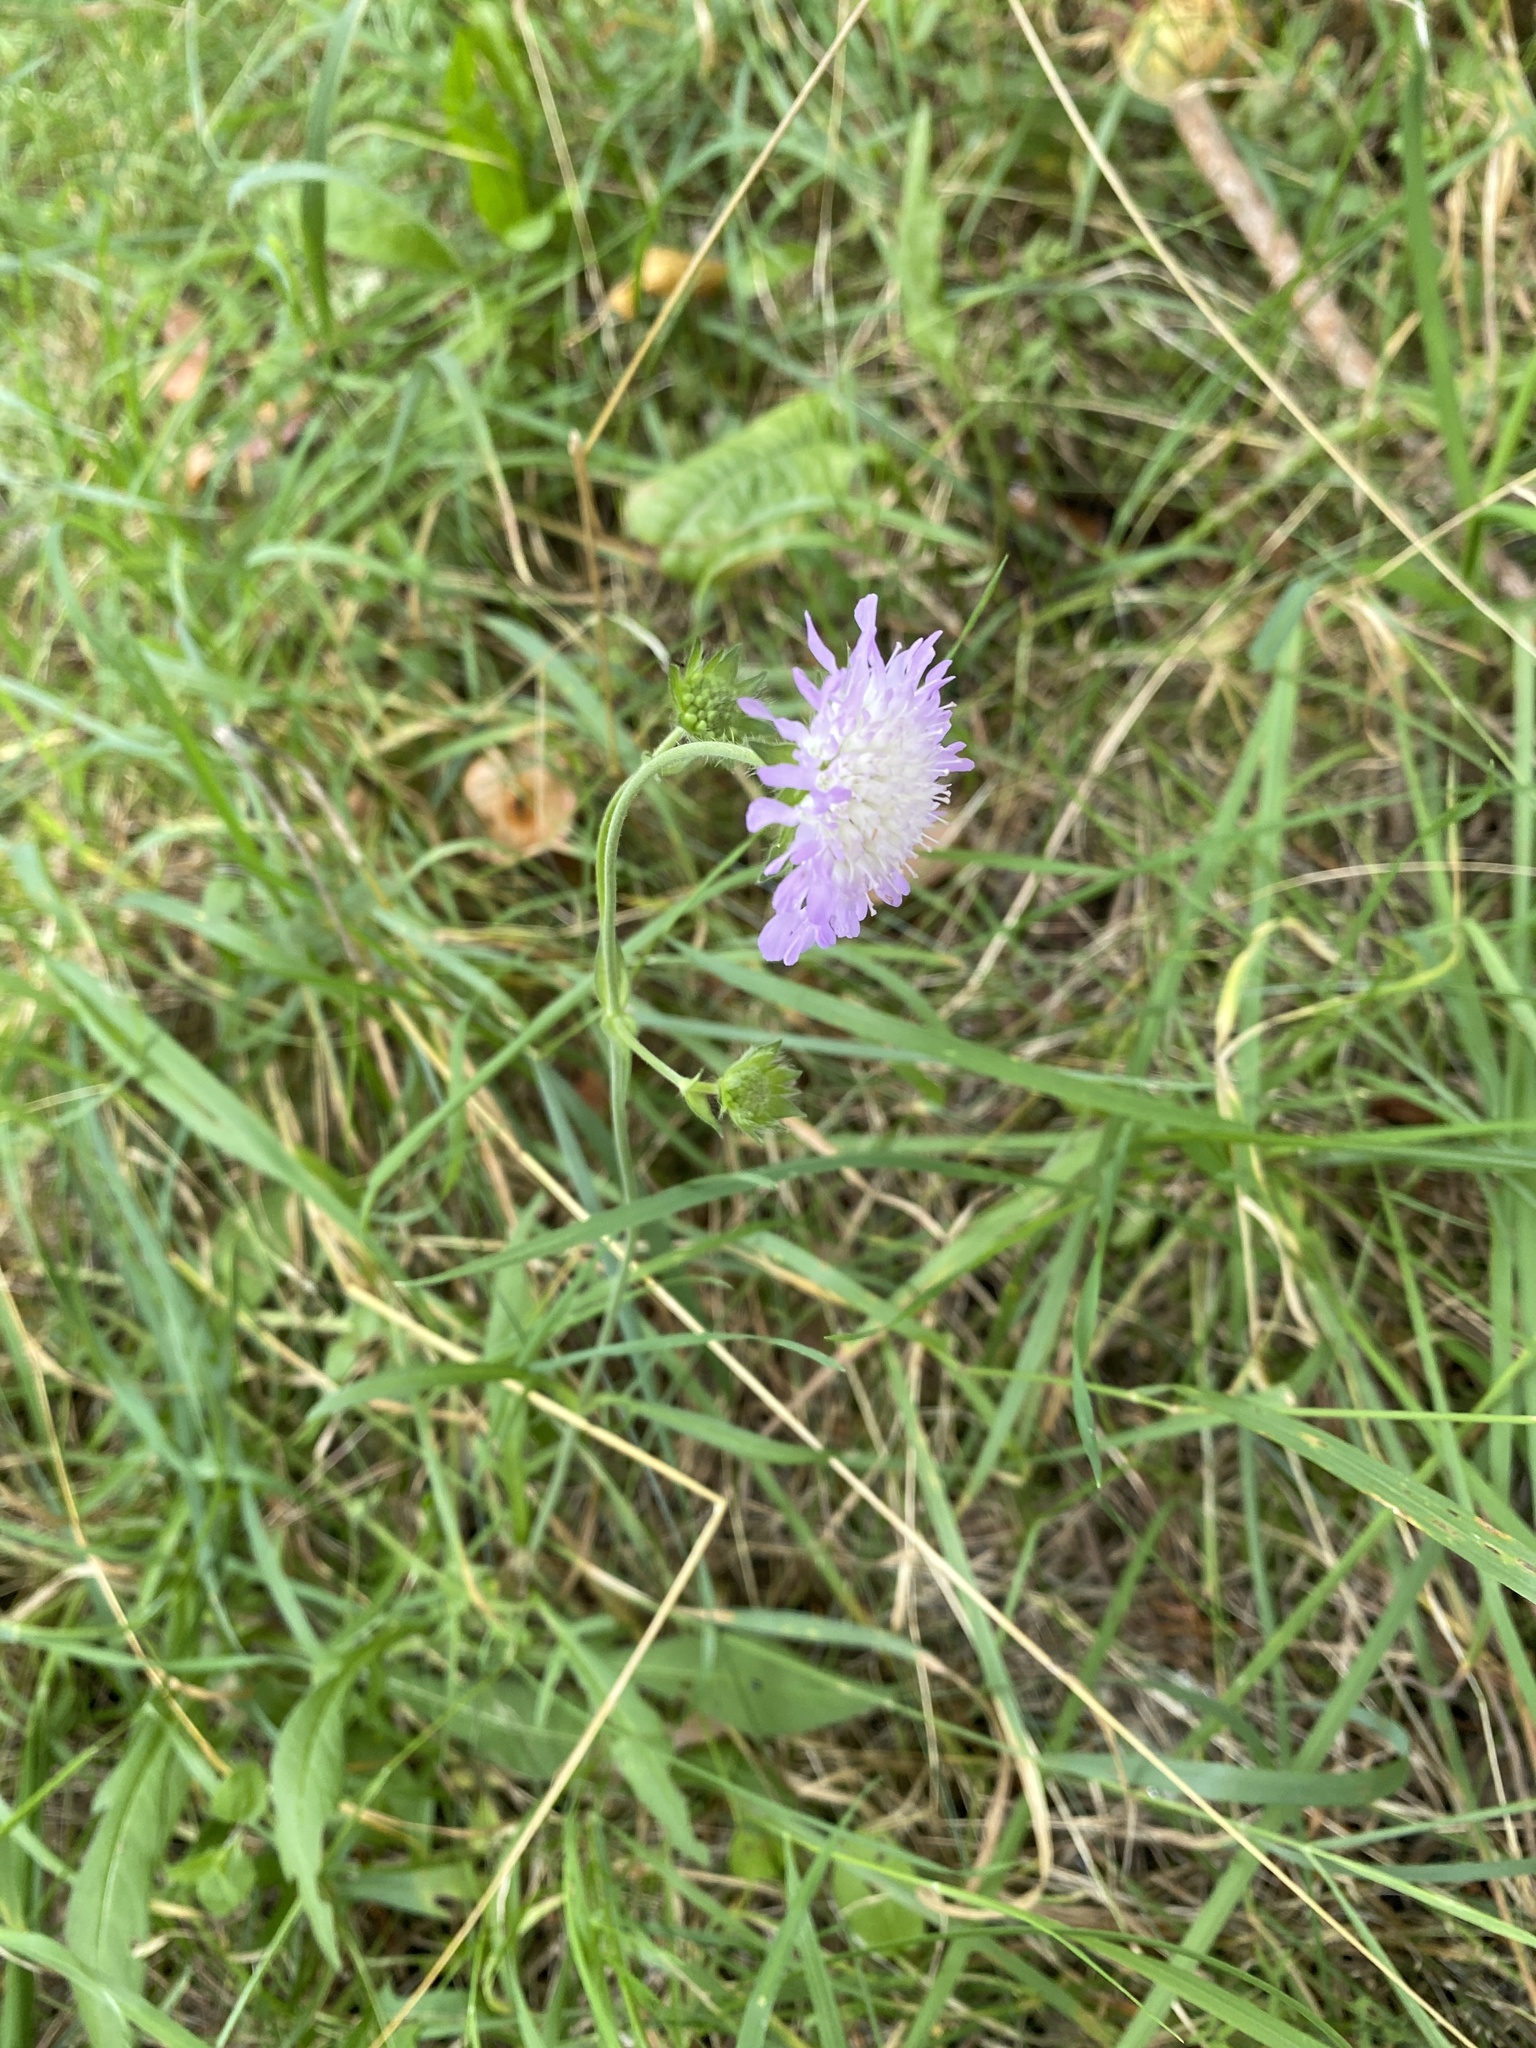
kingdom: Plantae
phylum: Tracheophyta
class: Magnoliopsida
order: Dipsacales
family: Caprifoliaceae
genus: Knautia
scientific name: Knautia arvensis
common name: Field scabiosa
